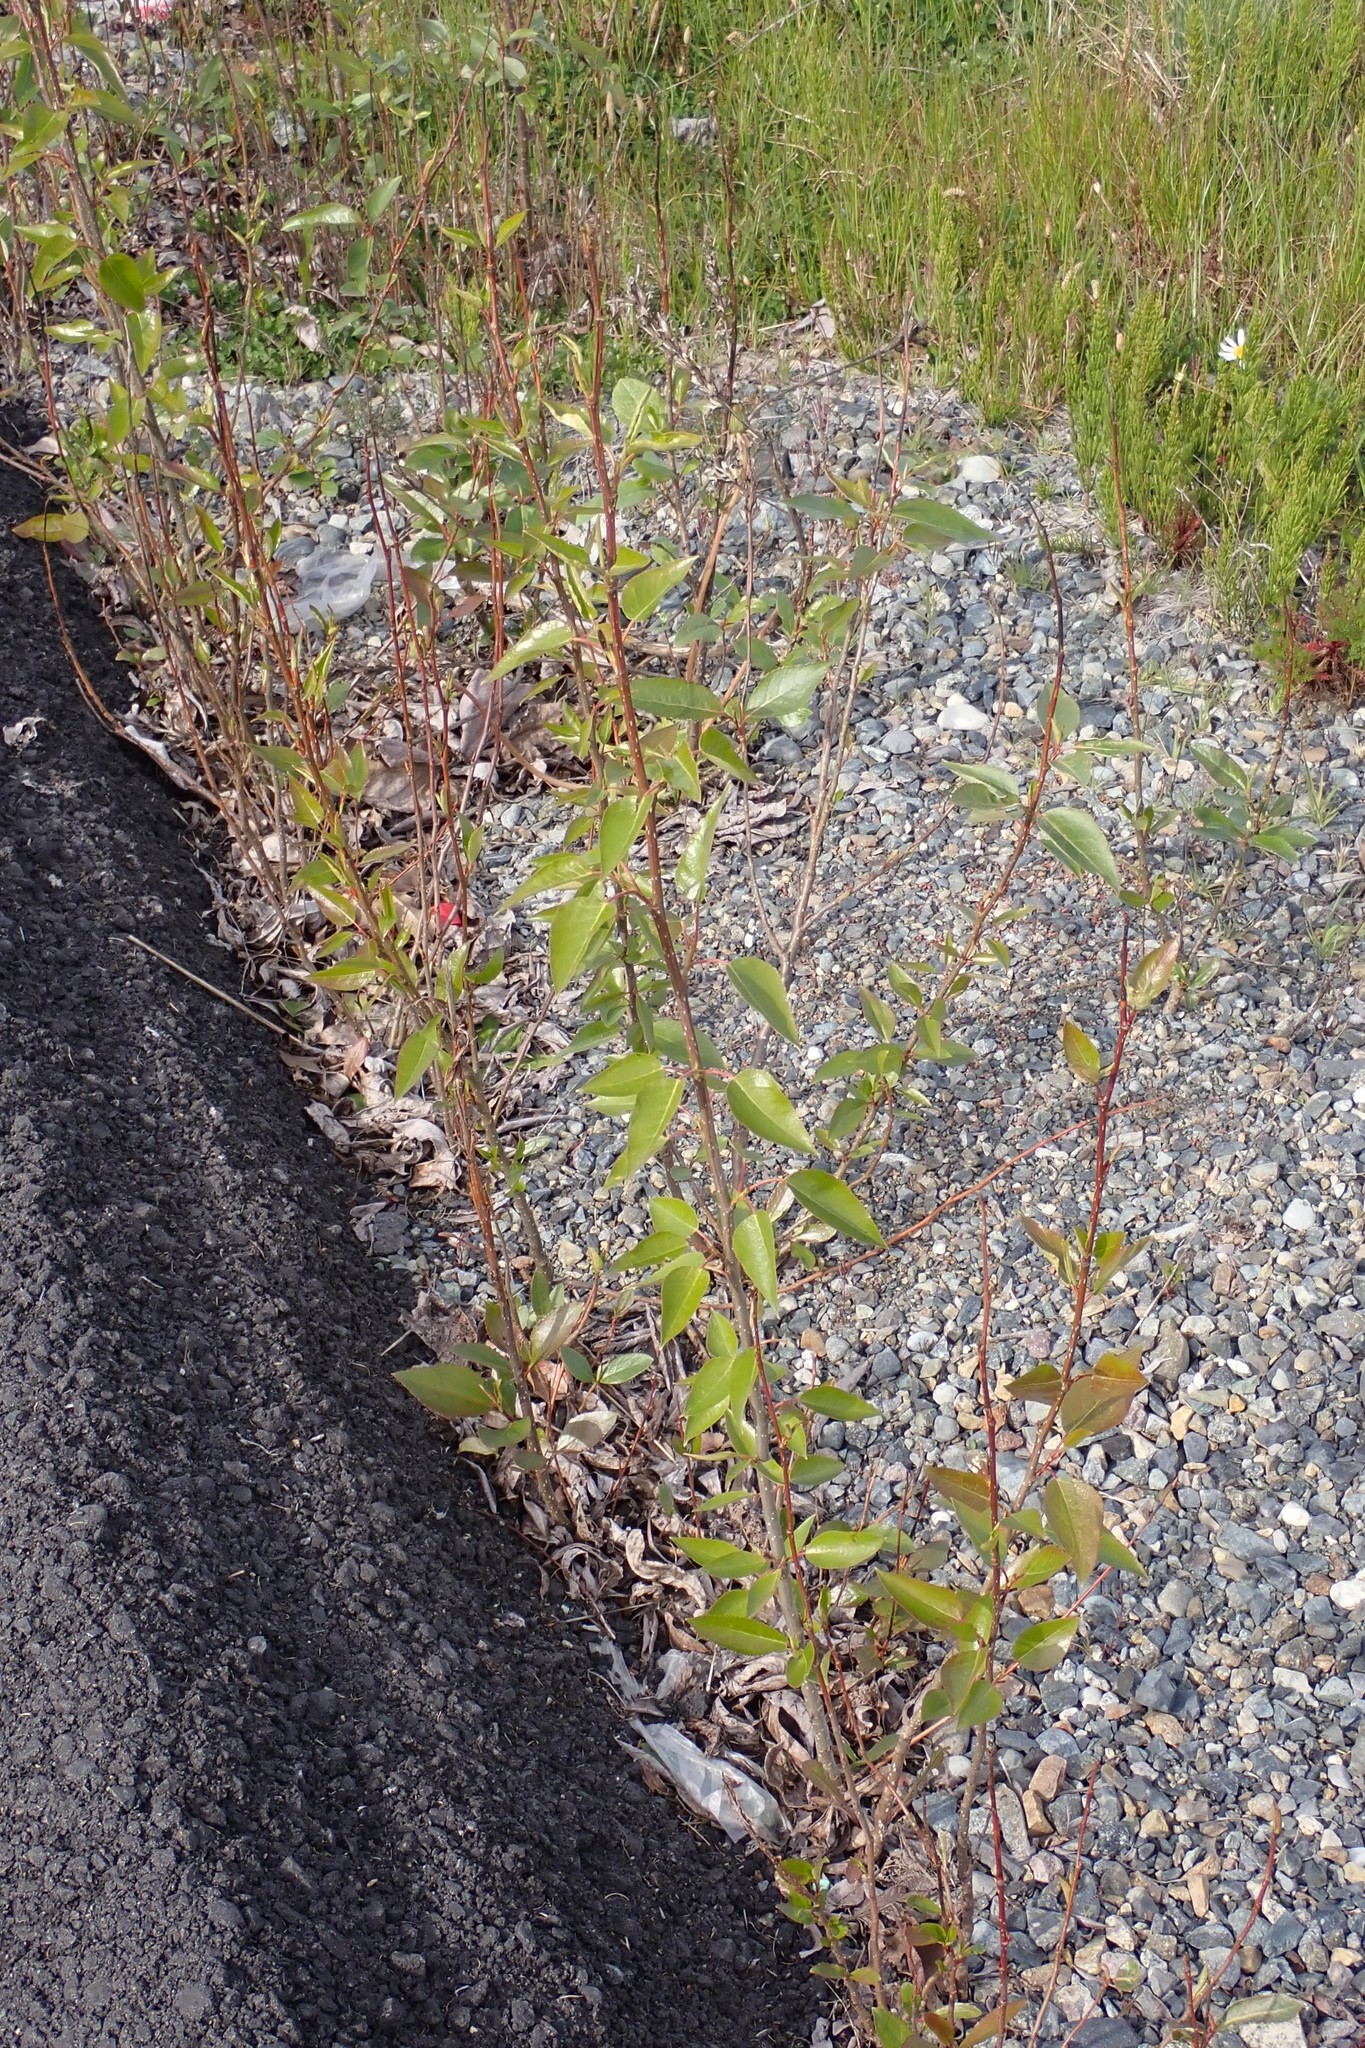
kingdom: Plantae
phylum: Tracheophyta
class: Magnoliopsida
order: Malpighiales
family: Salicaceae
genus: Populus
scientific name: Populus trichocarpa
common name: Black cottonwood
